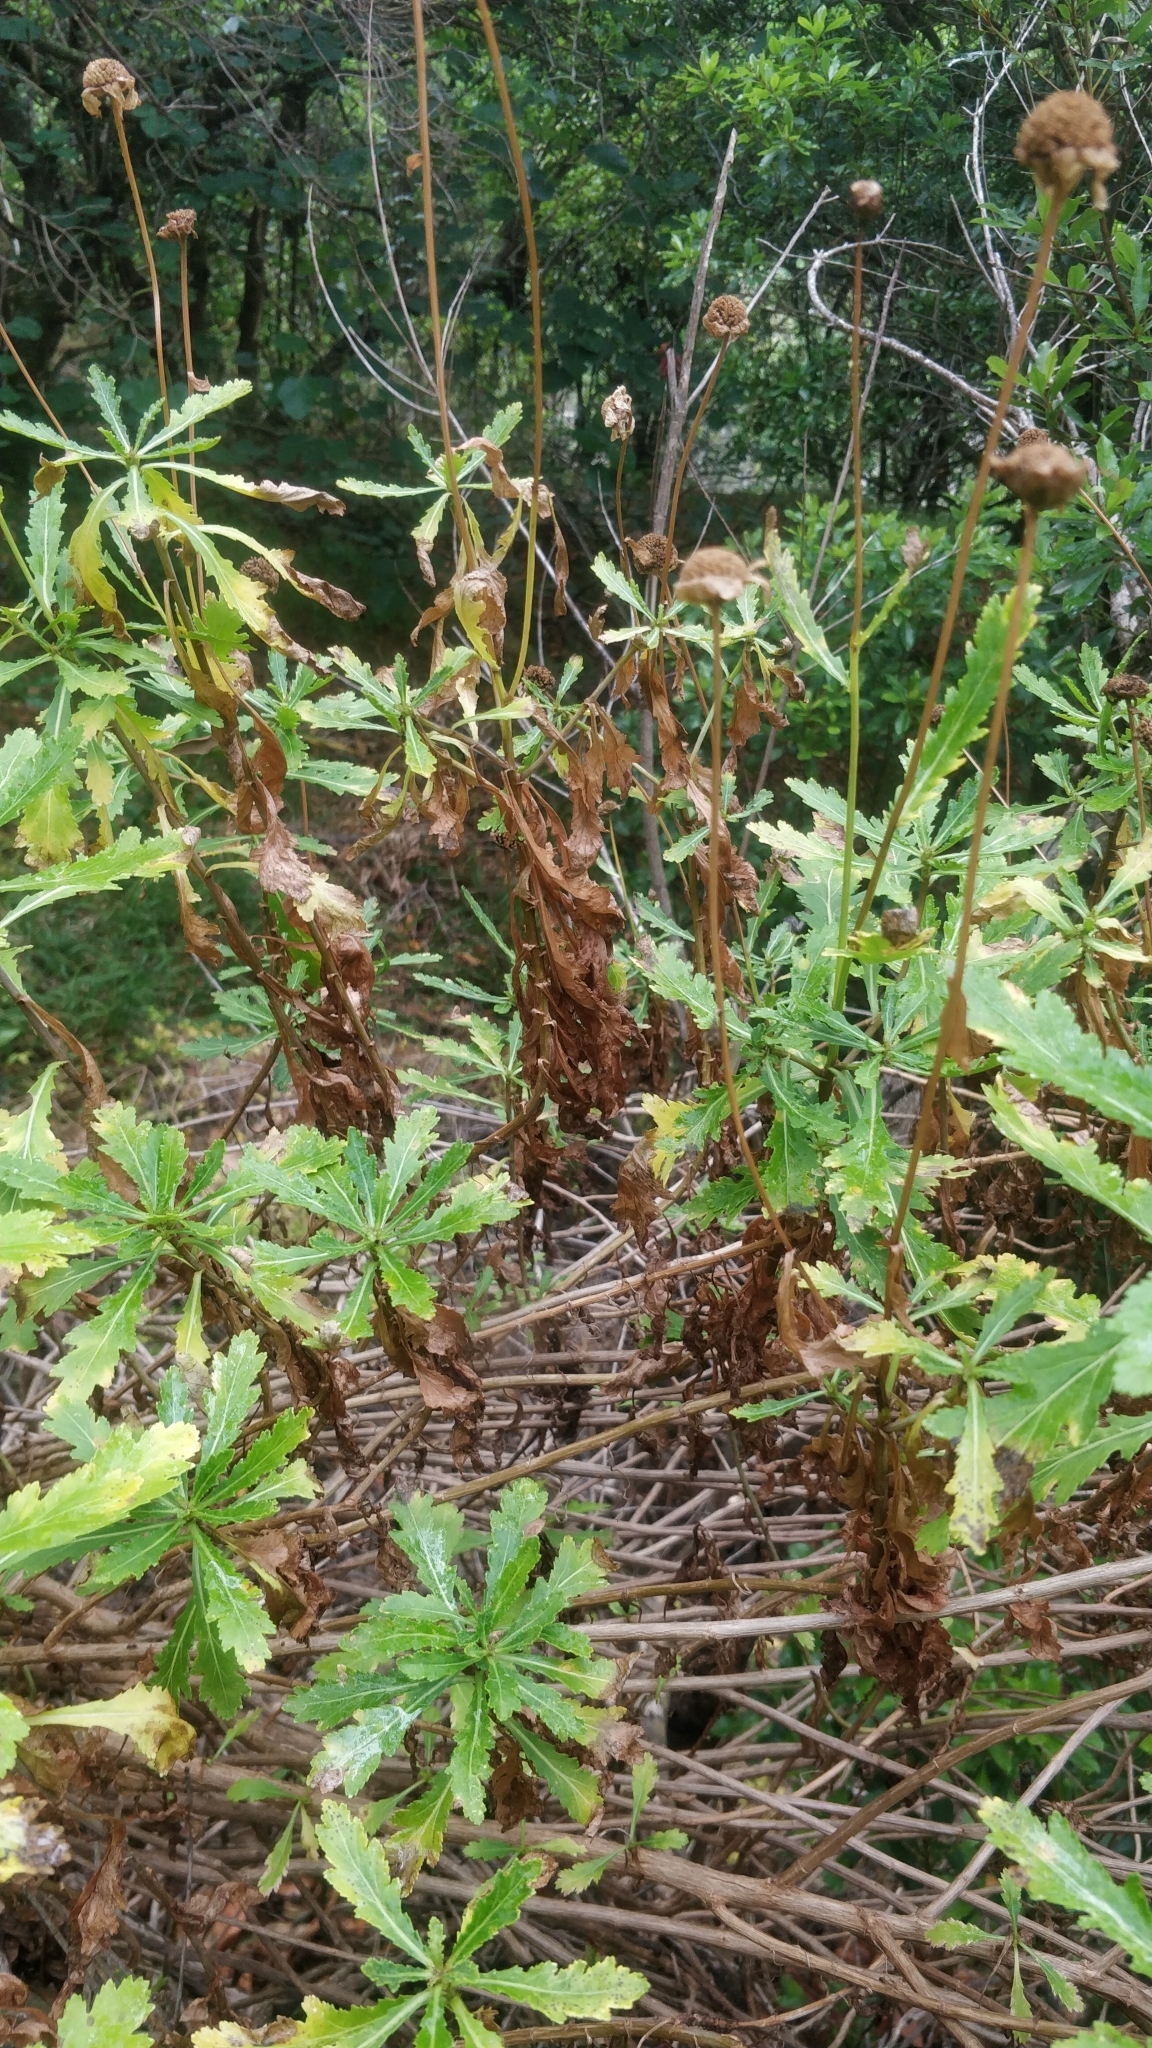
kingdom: Plantae
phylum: Tracheophyta
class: Magnoliopsida
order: Asterales
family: Asteraceae
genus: Argyranthemum
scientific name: Argyranthemum pinnatifidum
